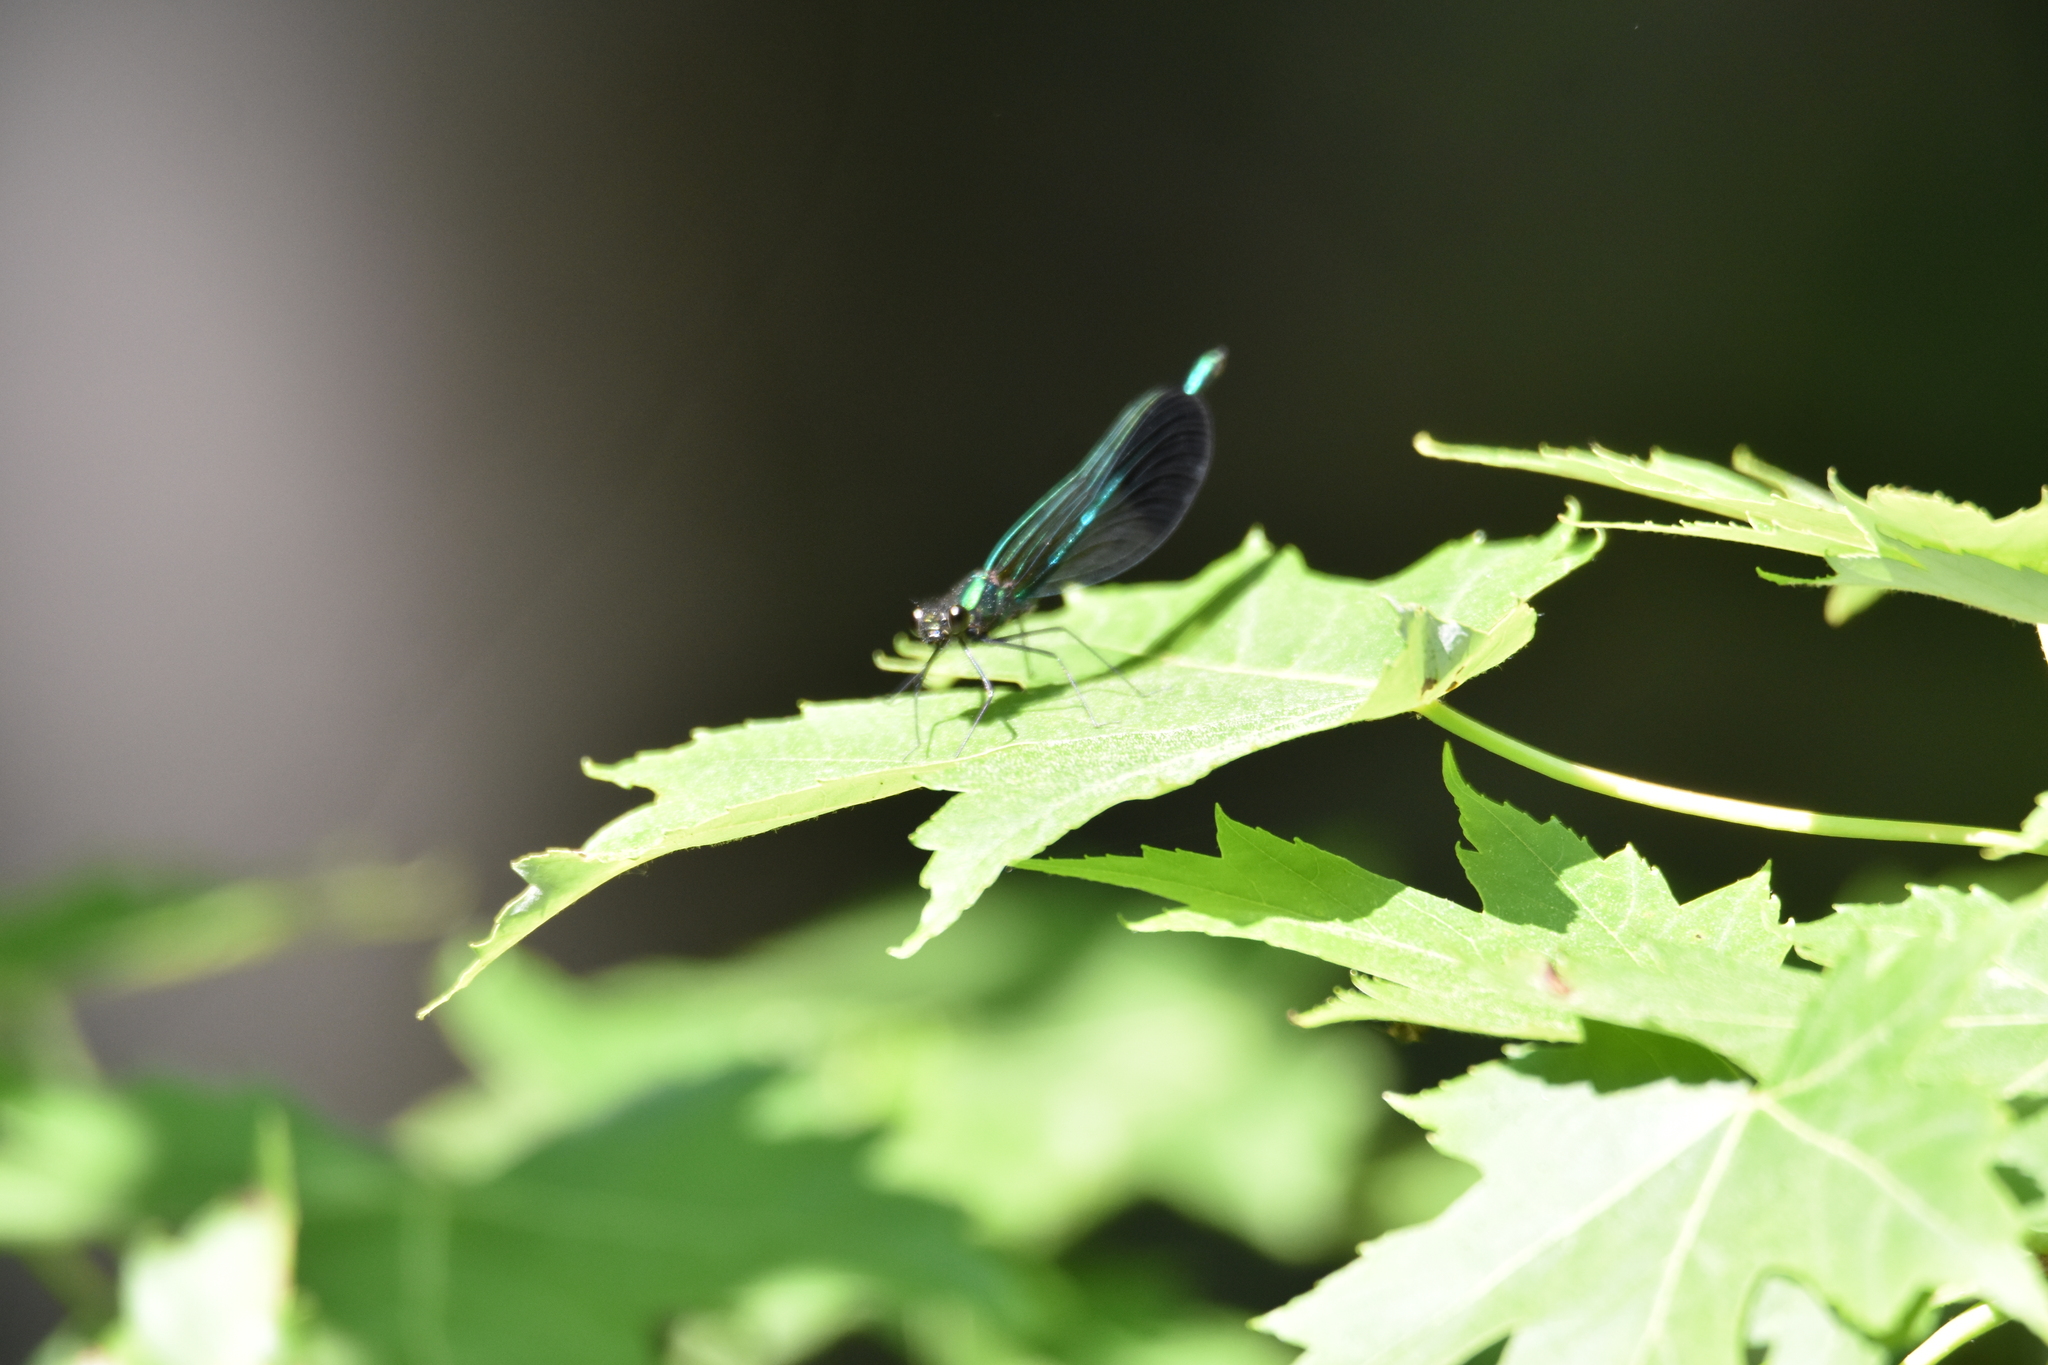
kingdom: Animalia
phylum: Arthropoda
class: Insecta
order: Odonata
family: Calopterygidae
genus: Calopteryx
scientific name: Calopteryx aequabilis
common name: River jewelwing
